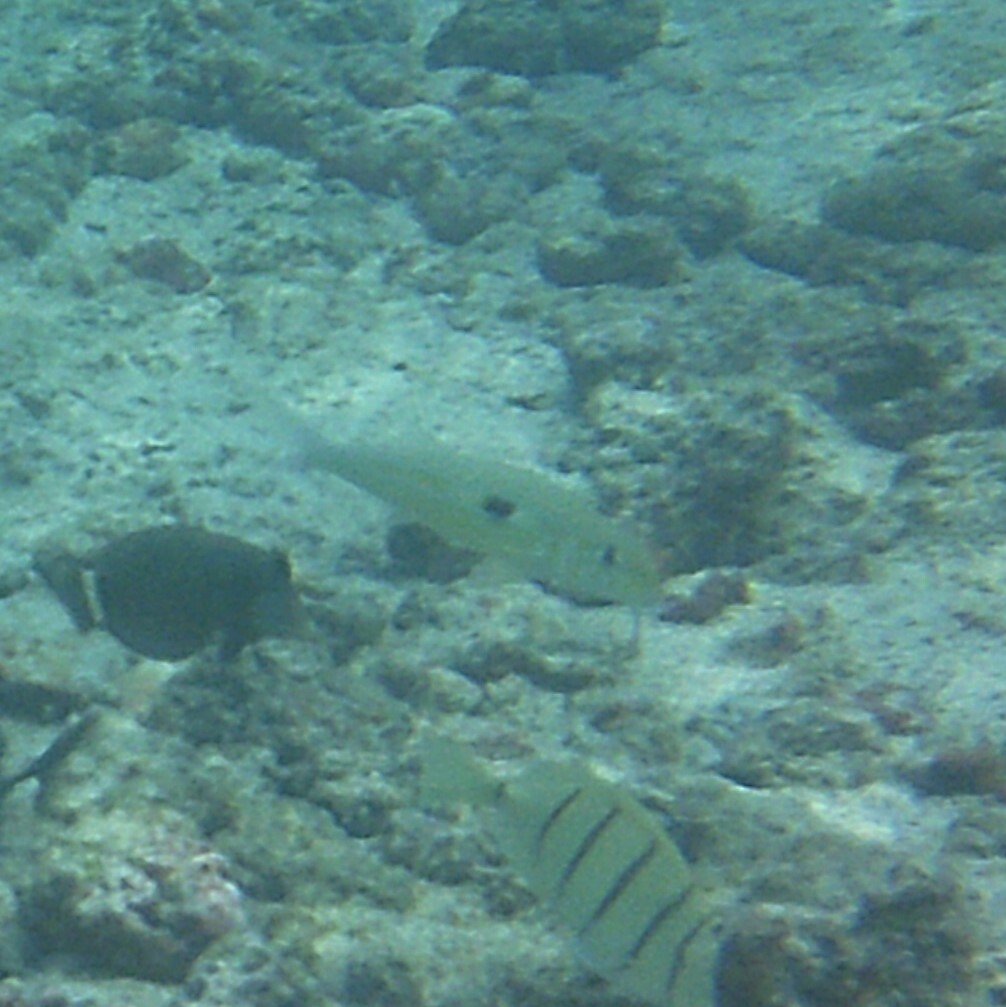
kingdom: Animalia
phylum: Chordata
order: Perciformes
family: Mullidae
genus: Mulloidichthys
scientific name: Mulloidichthys flavolineatus
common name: Yellowstripe goatfish
